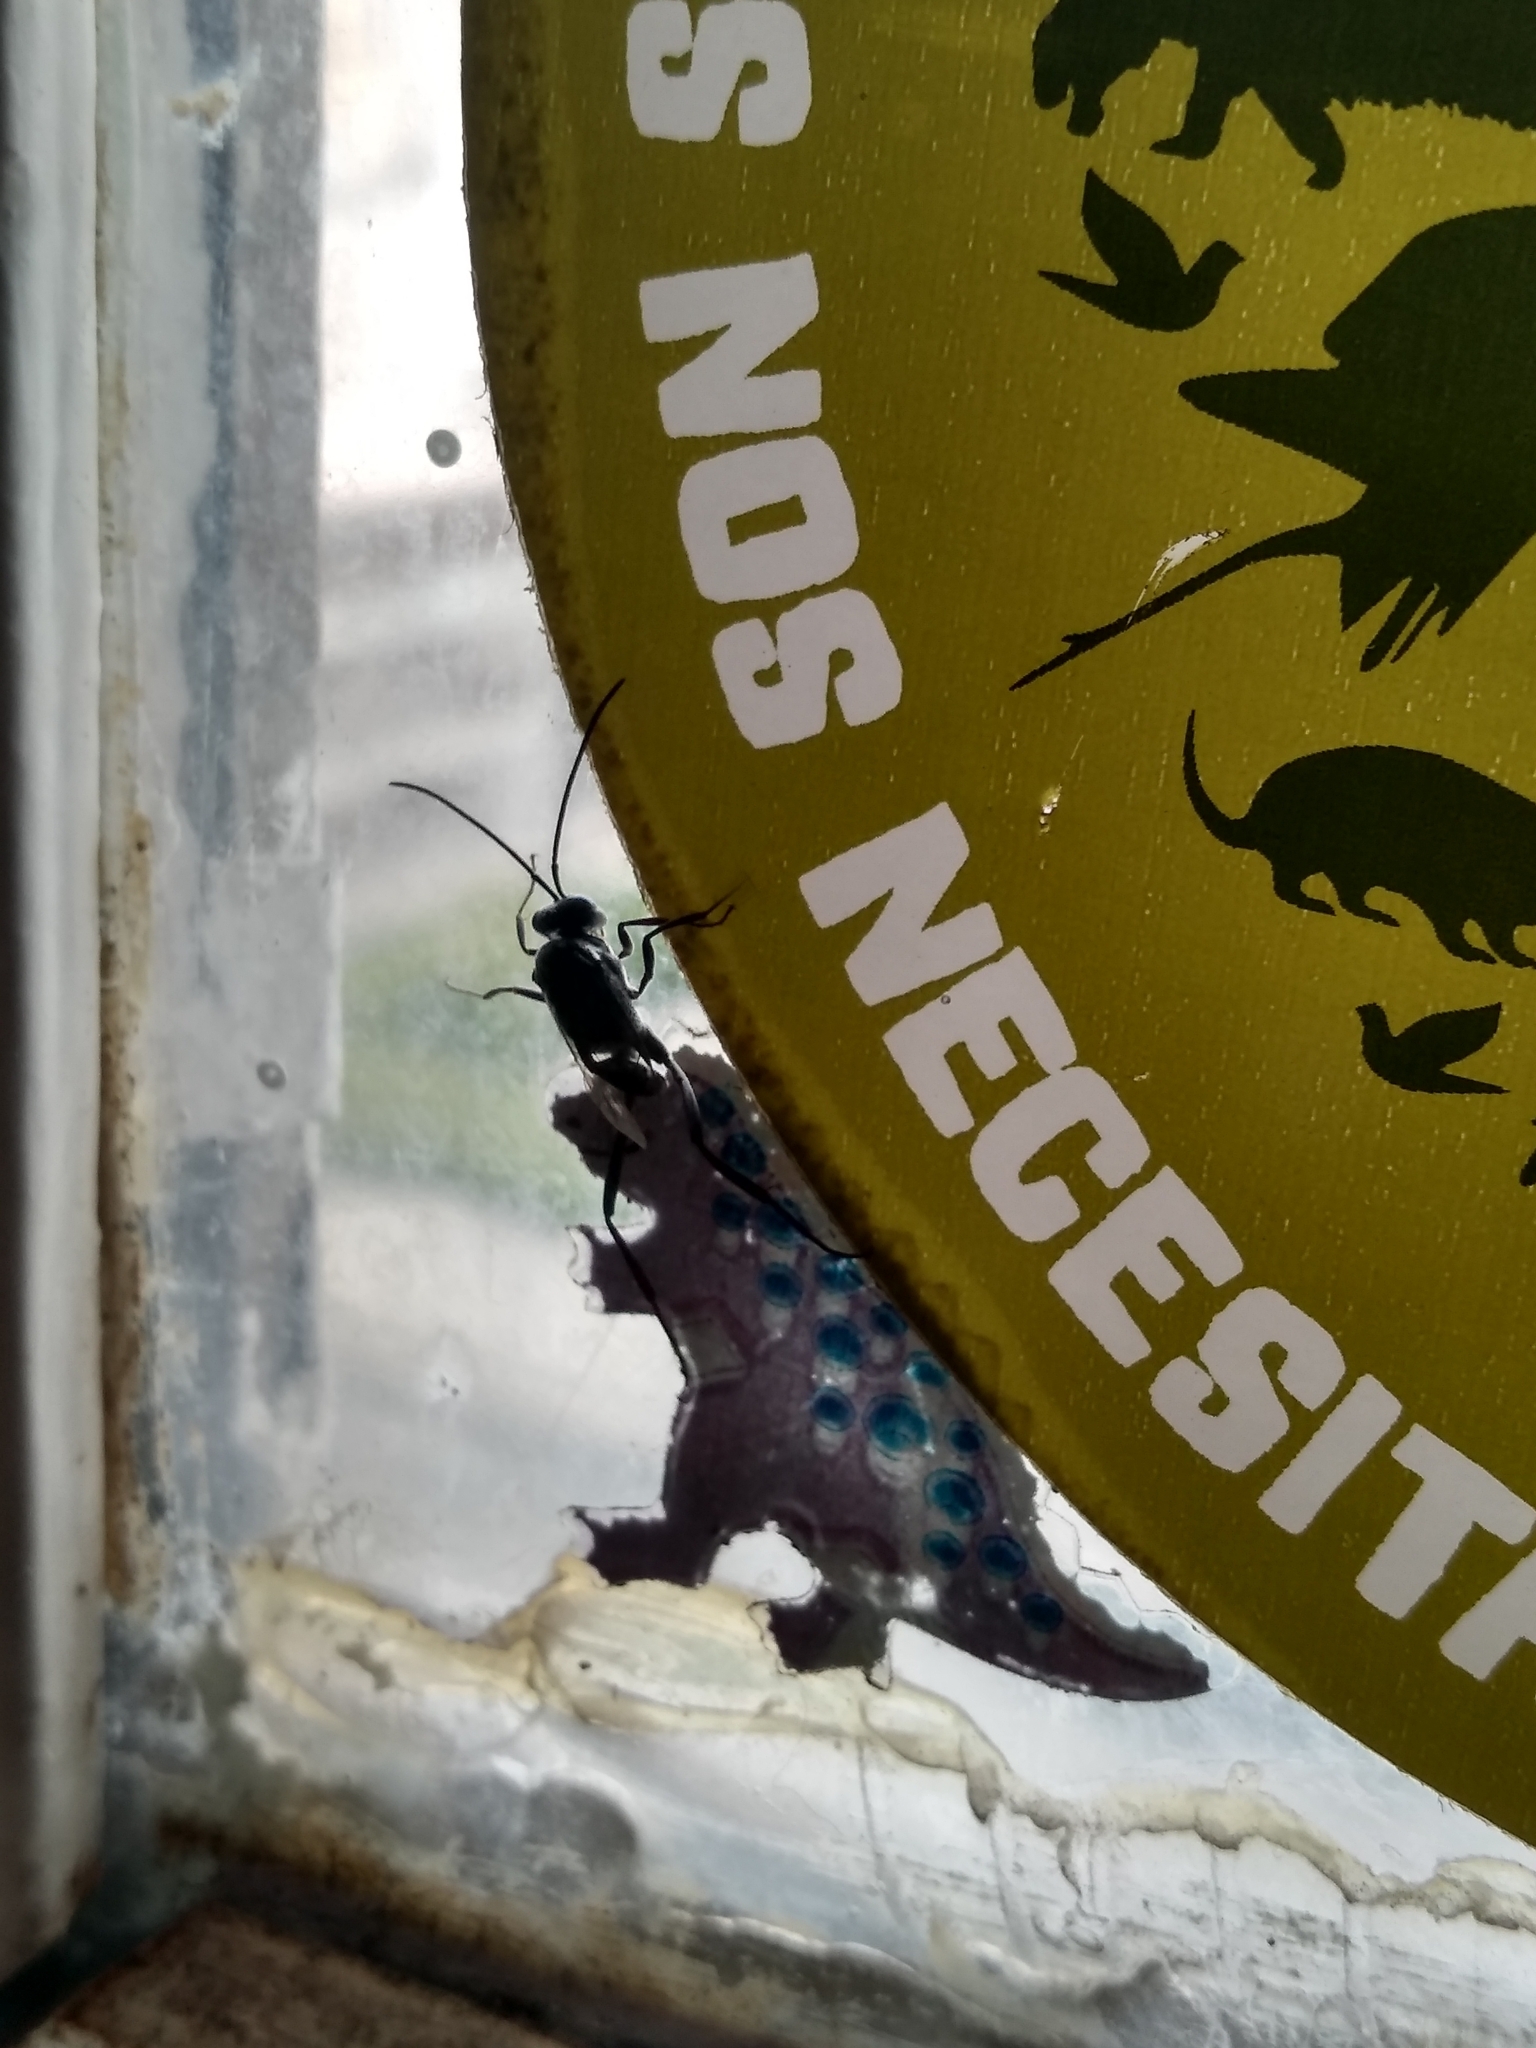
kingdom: Animalia
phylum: Arthropoda
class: Insecta
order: Hymenoptera
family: Evaniidae
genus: Evania
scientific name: Evania appendigaster
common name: Ensign wasp
